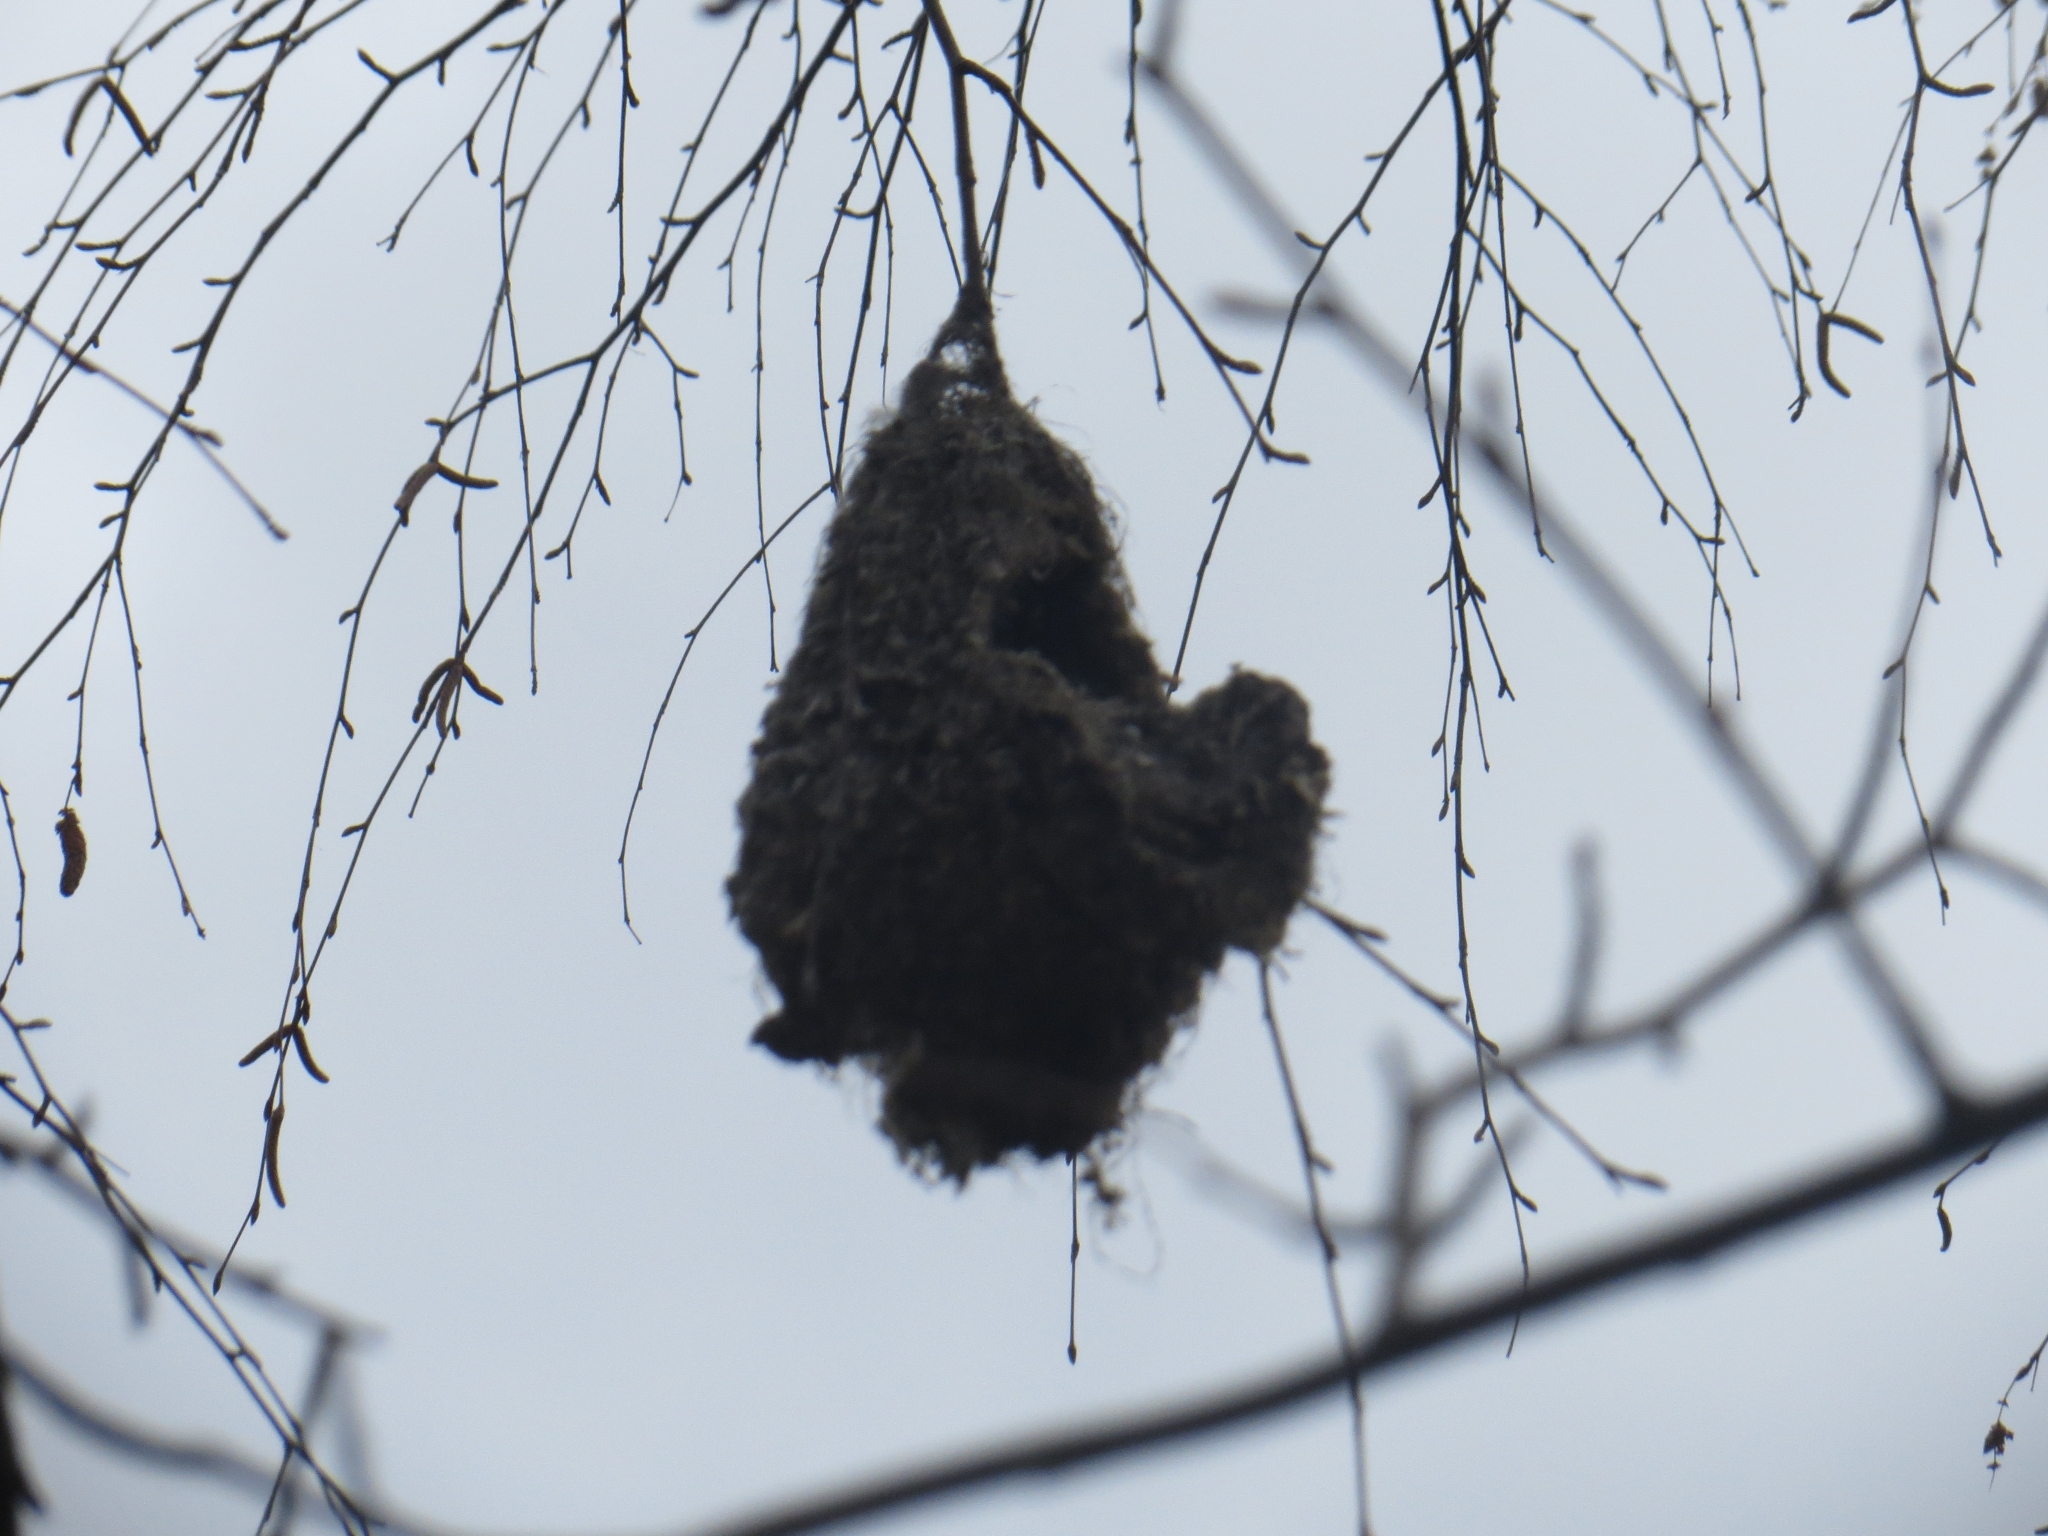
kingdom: Animalia
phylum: Chordata
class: Aves
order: Passeriformes
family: Remizidae
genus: Remiz
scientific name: Remiz pendulinus
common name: Eurasian penduline tit
